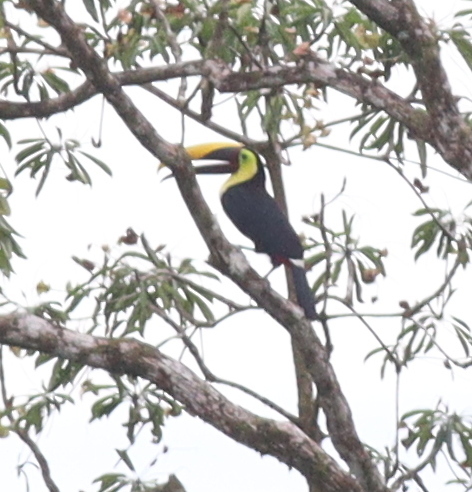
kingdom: Animalia
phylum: Chordata
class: Aves
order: Piciformes
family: Ramphastidae
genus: Ramphastos
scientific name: Ramphastos ambiguus
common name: Yellow-throated toucan
